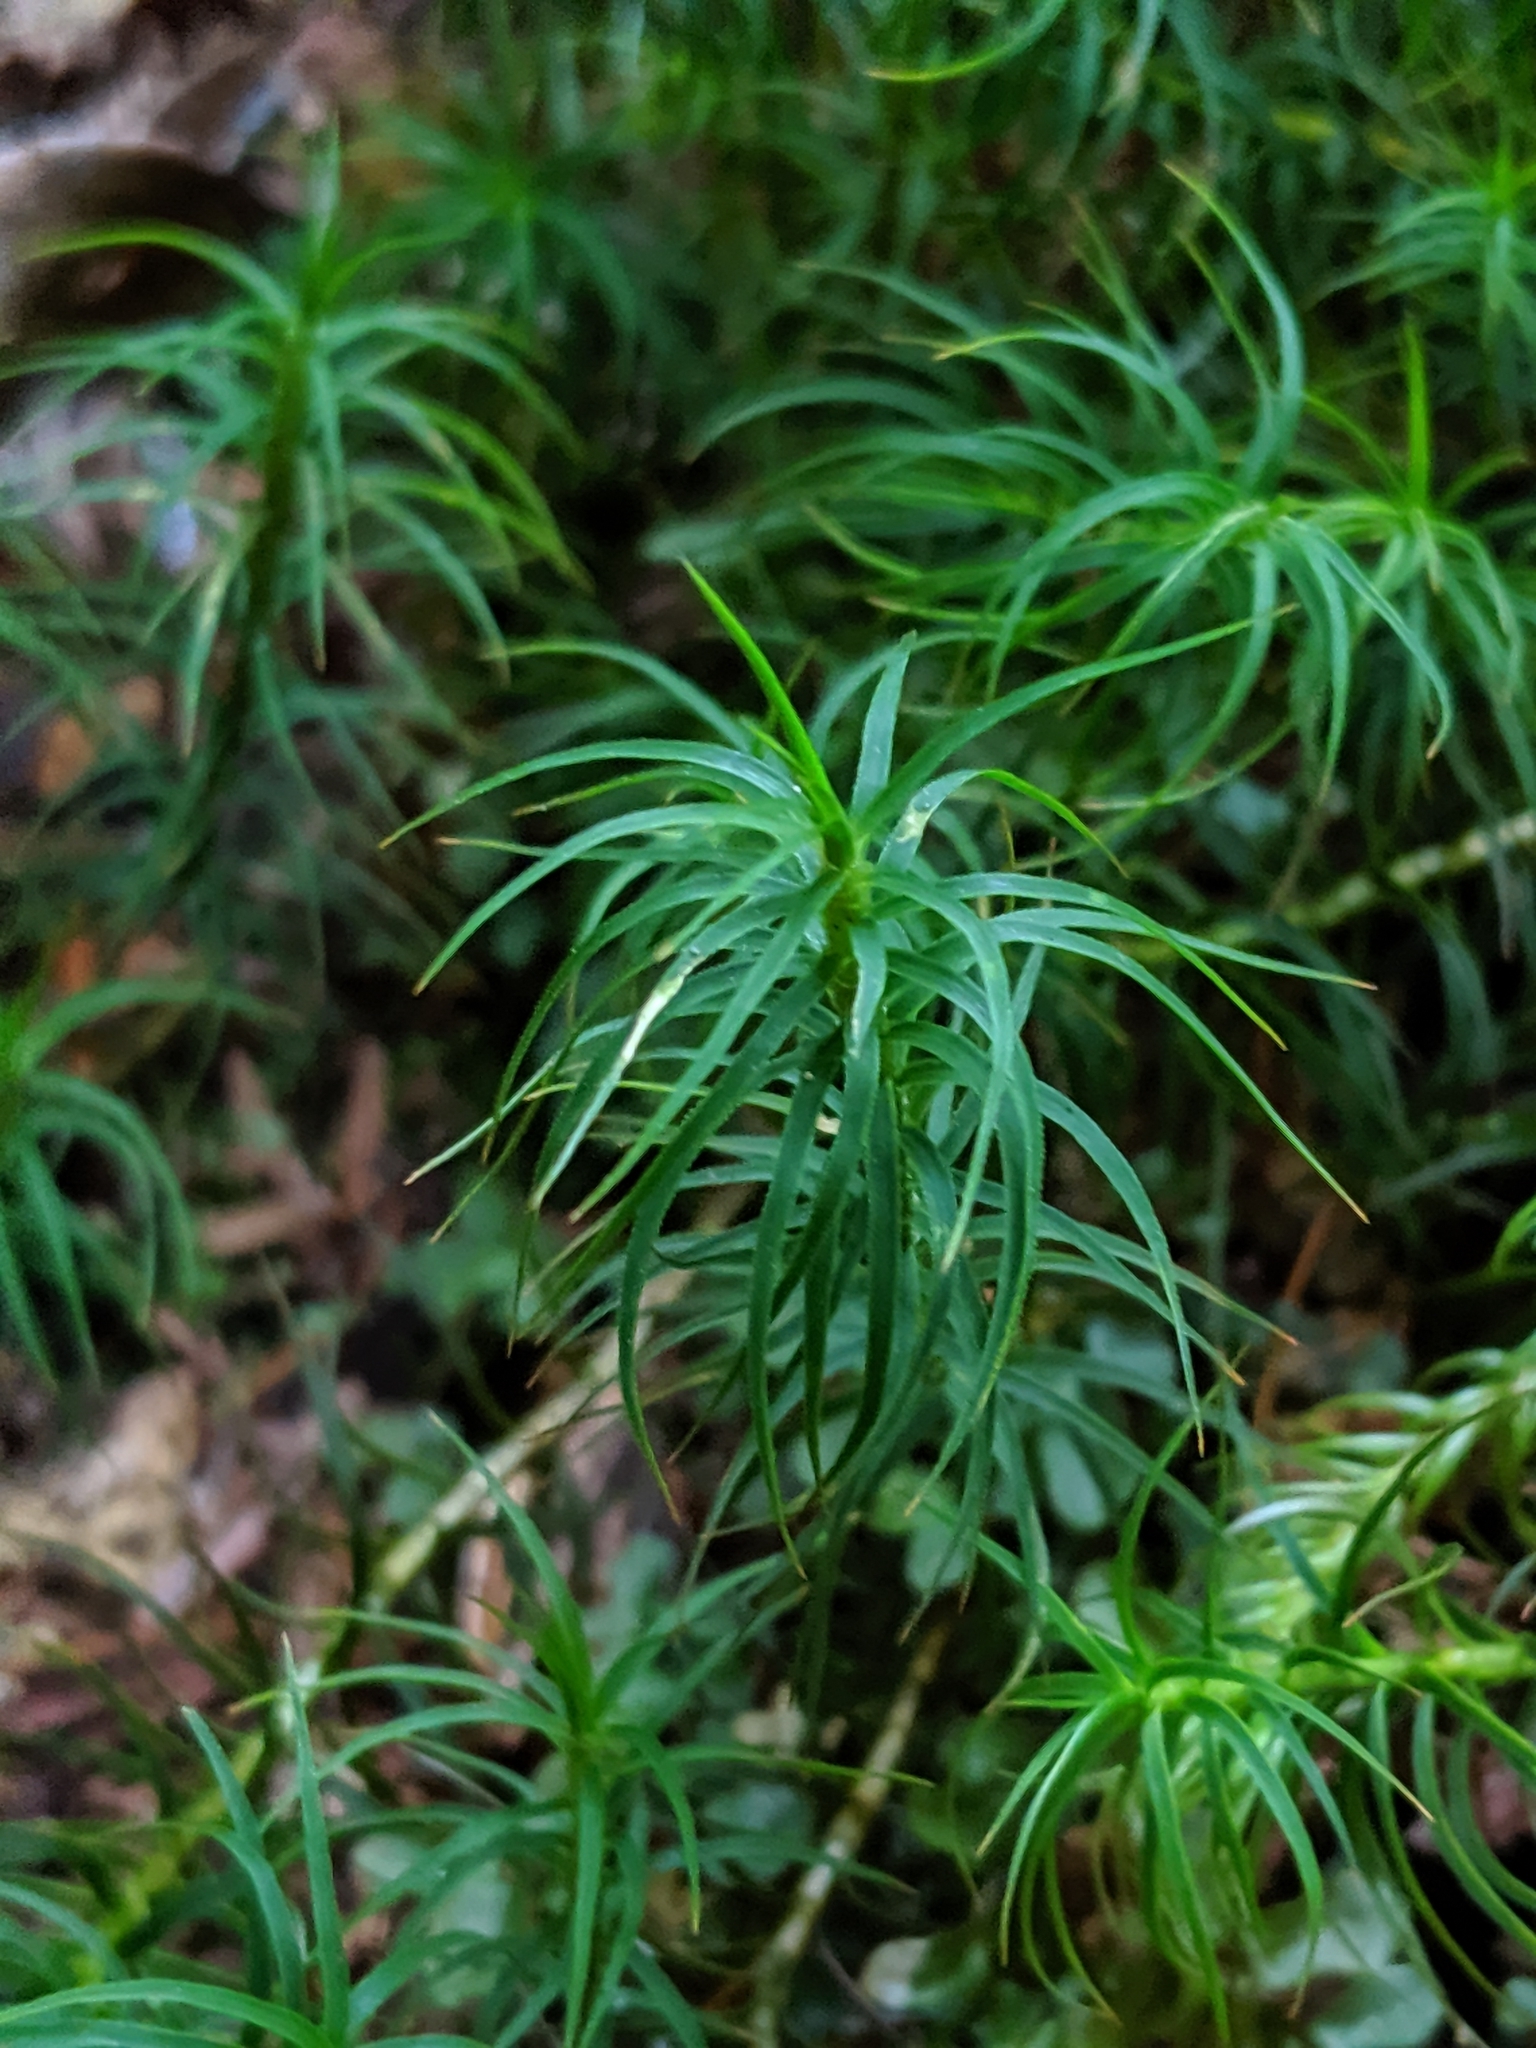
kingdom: Plantae
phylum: Bryophyta
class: Polytrichopsida
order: Polytrichales
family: Polytrichaceae
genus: Polytrichastrum
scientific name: Polytrichastrum alpinum
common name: Alpine haircap
